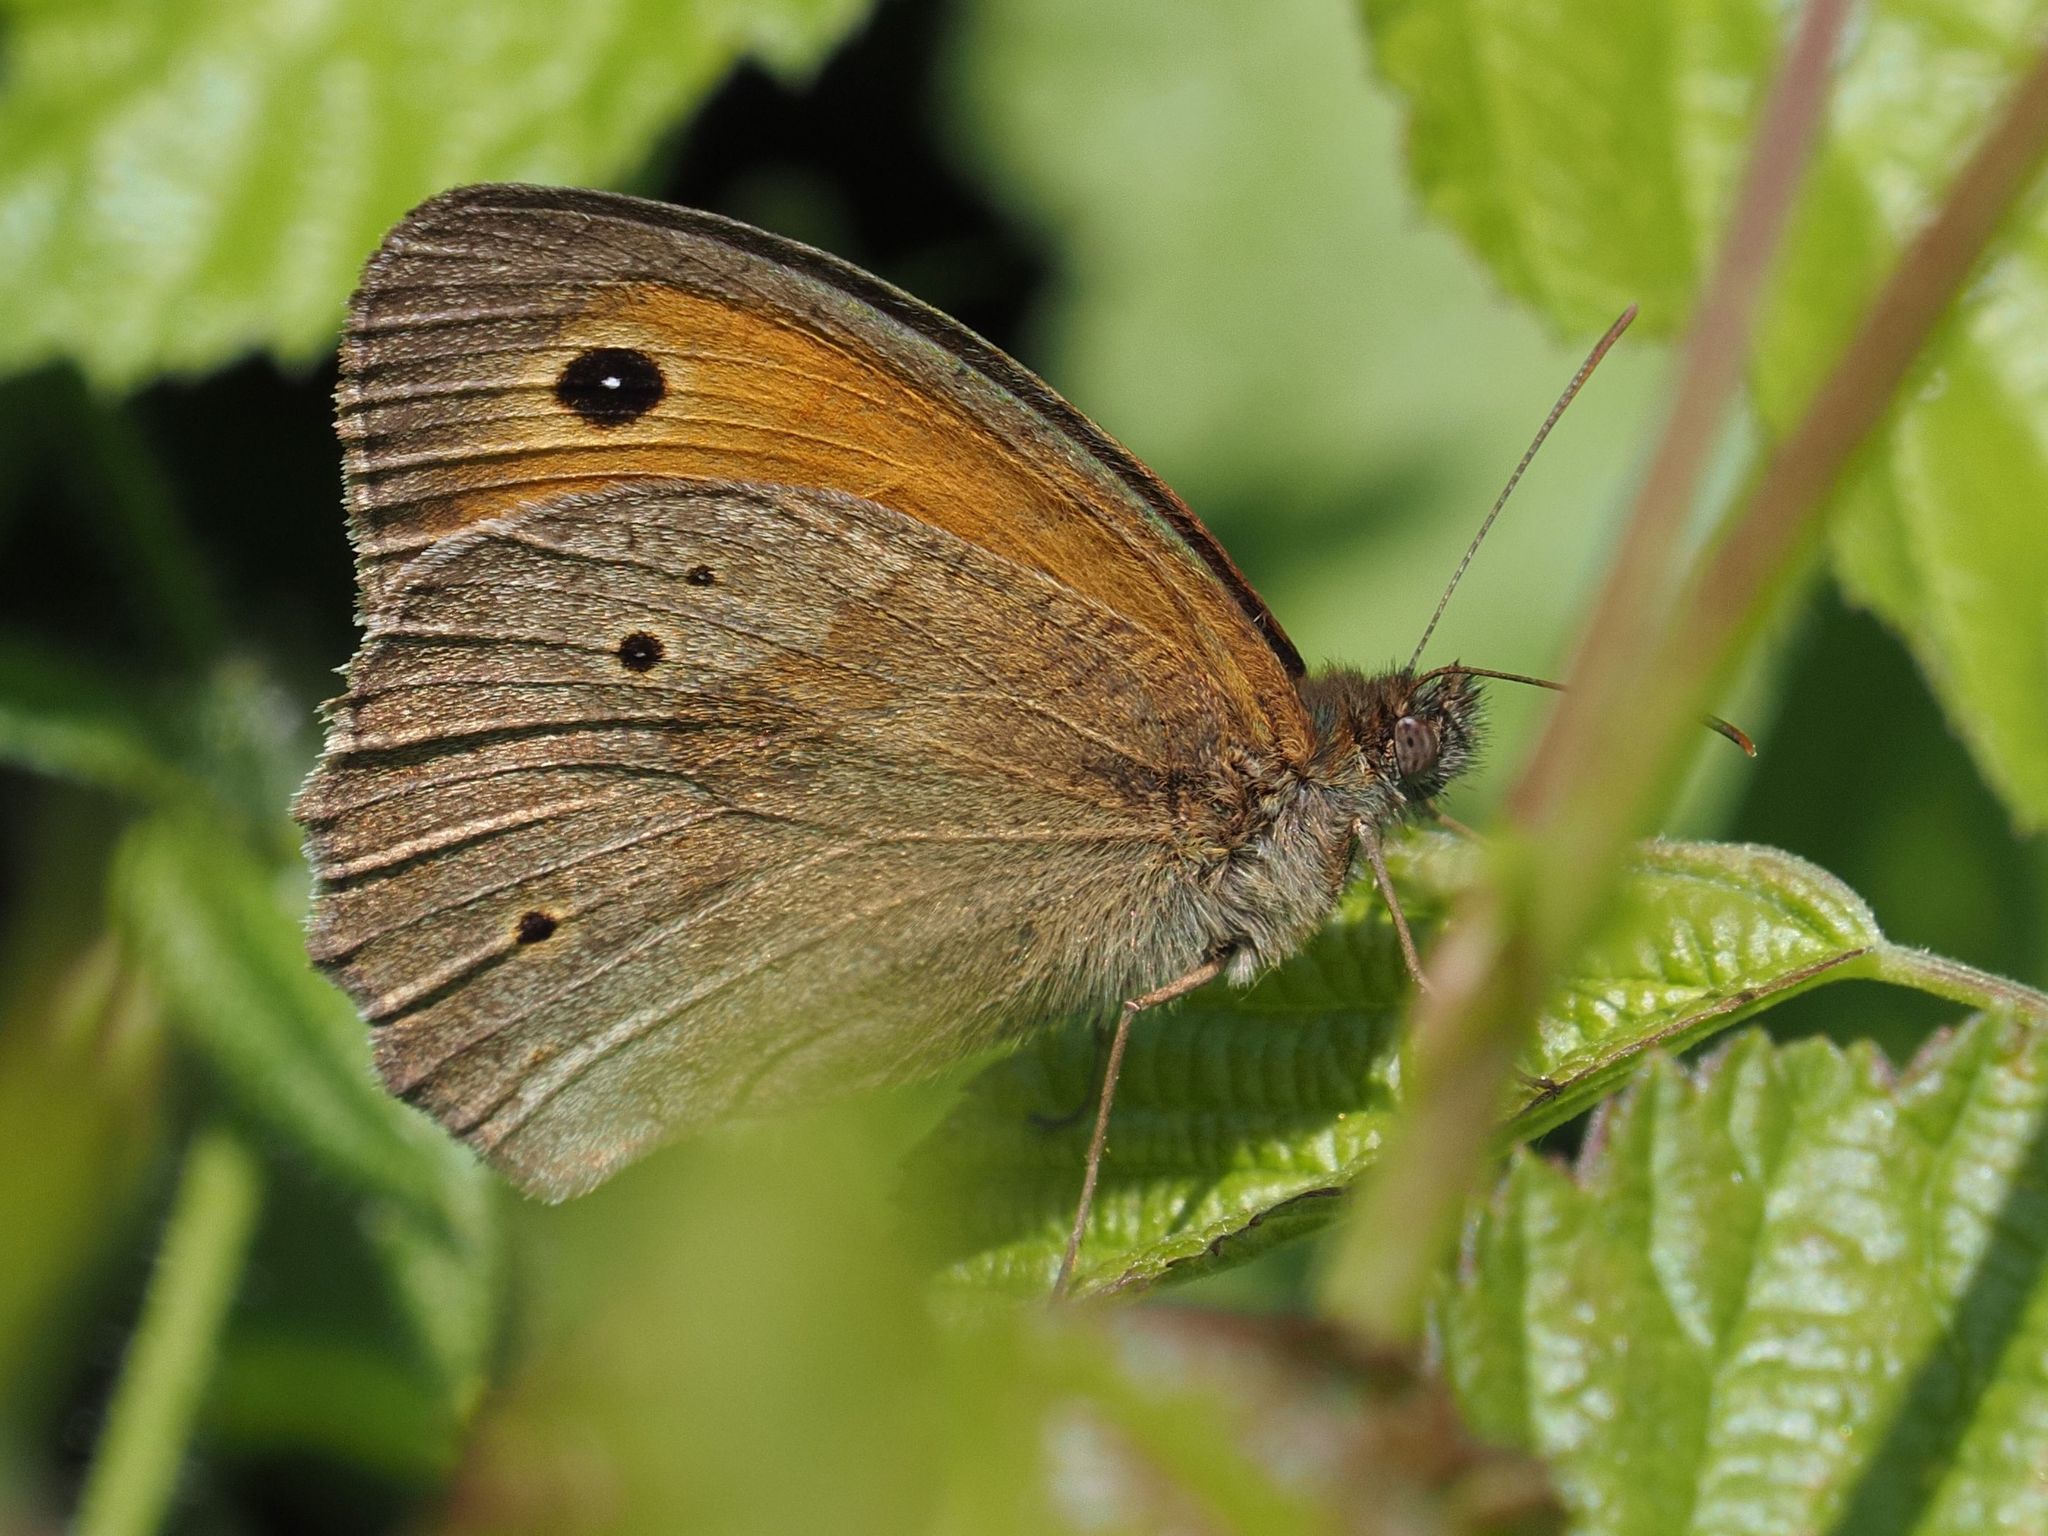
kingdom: Animalia
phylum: Arthropoda
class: Insecta
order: Lepidoptera
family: Nymphalidae
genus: Maniola
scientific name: Maniola jurtina
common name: Meadow brown
